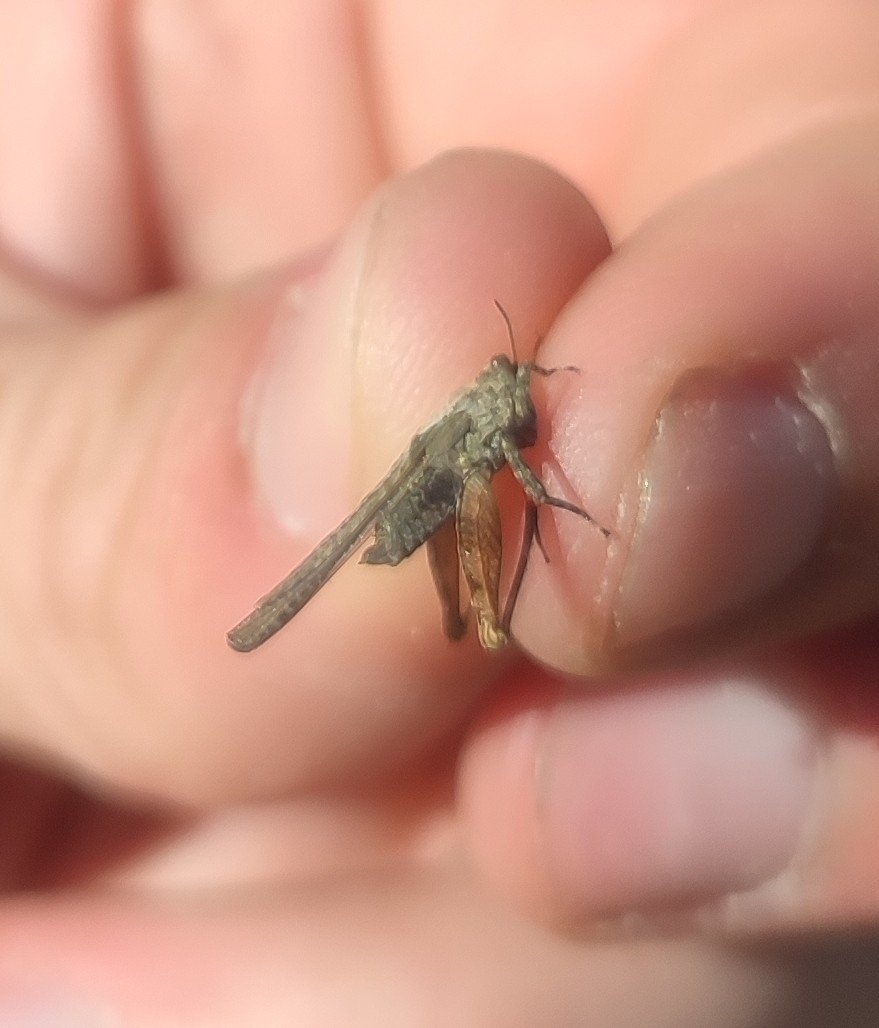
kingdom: Animalia
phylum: Arthropoda
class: Insecta
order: Orthoptera
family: Tetrigidae
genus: Paratettix
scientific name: Paratettix meridionalis
